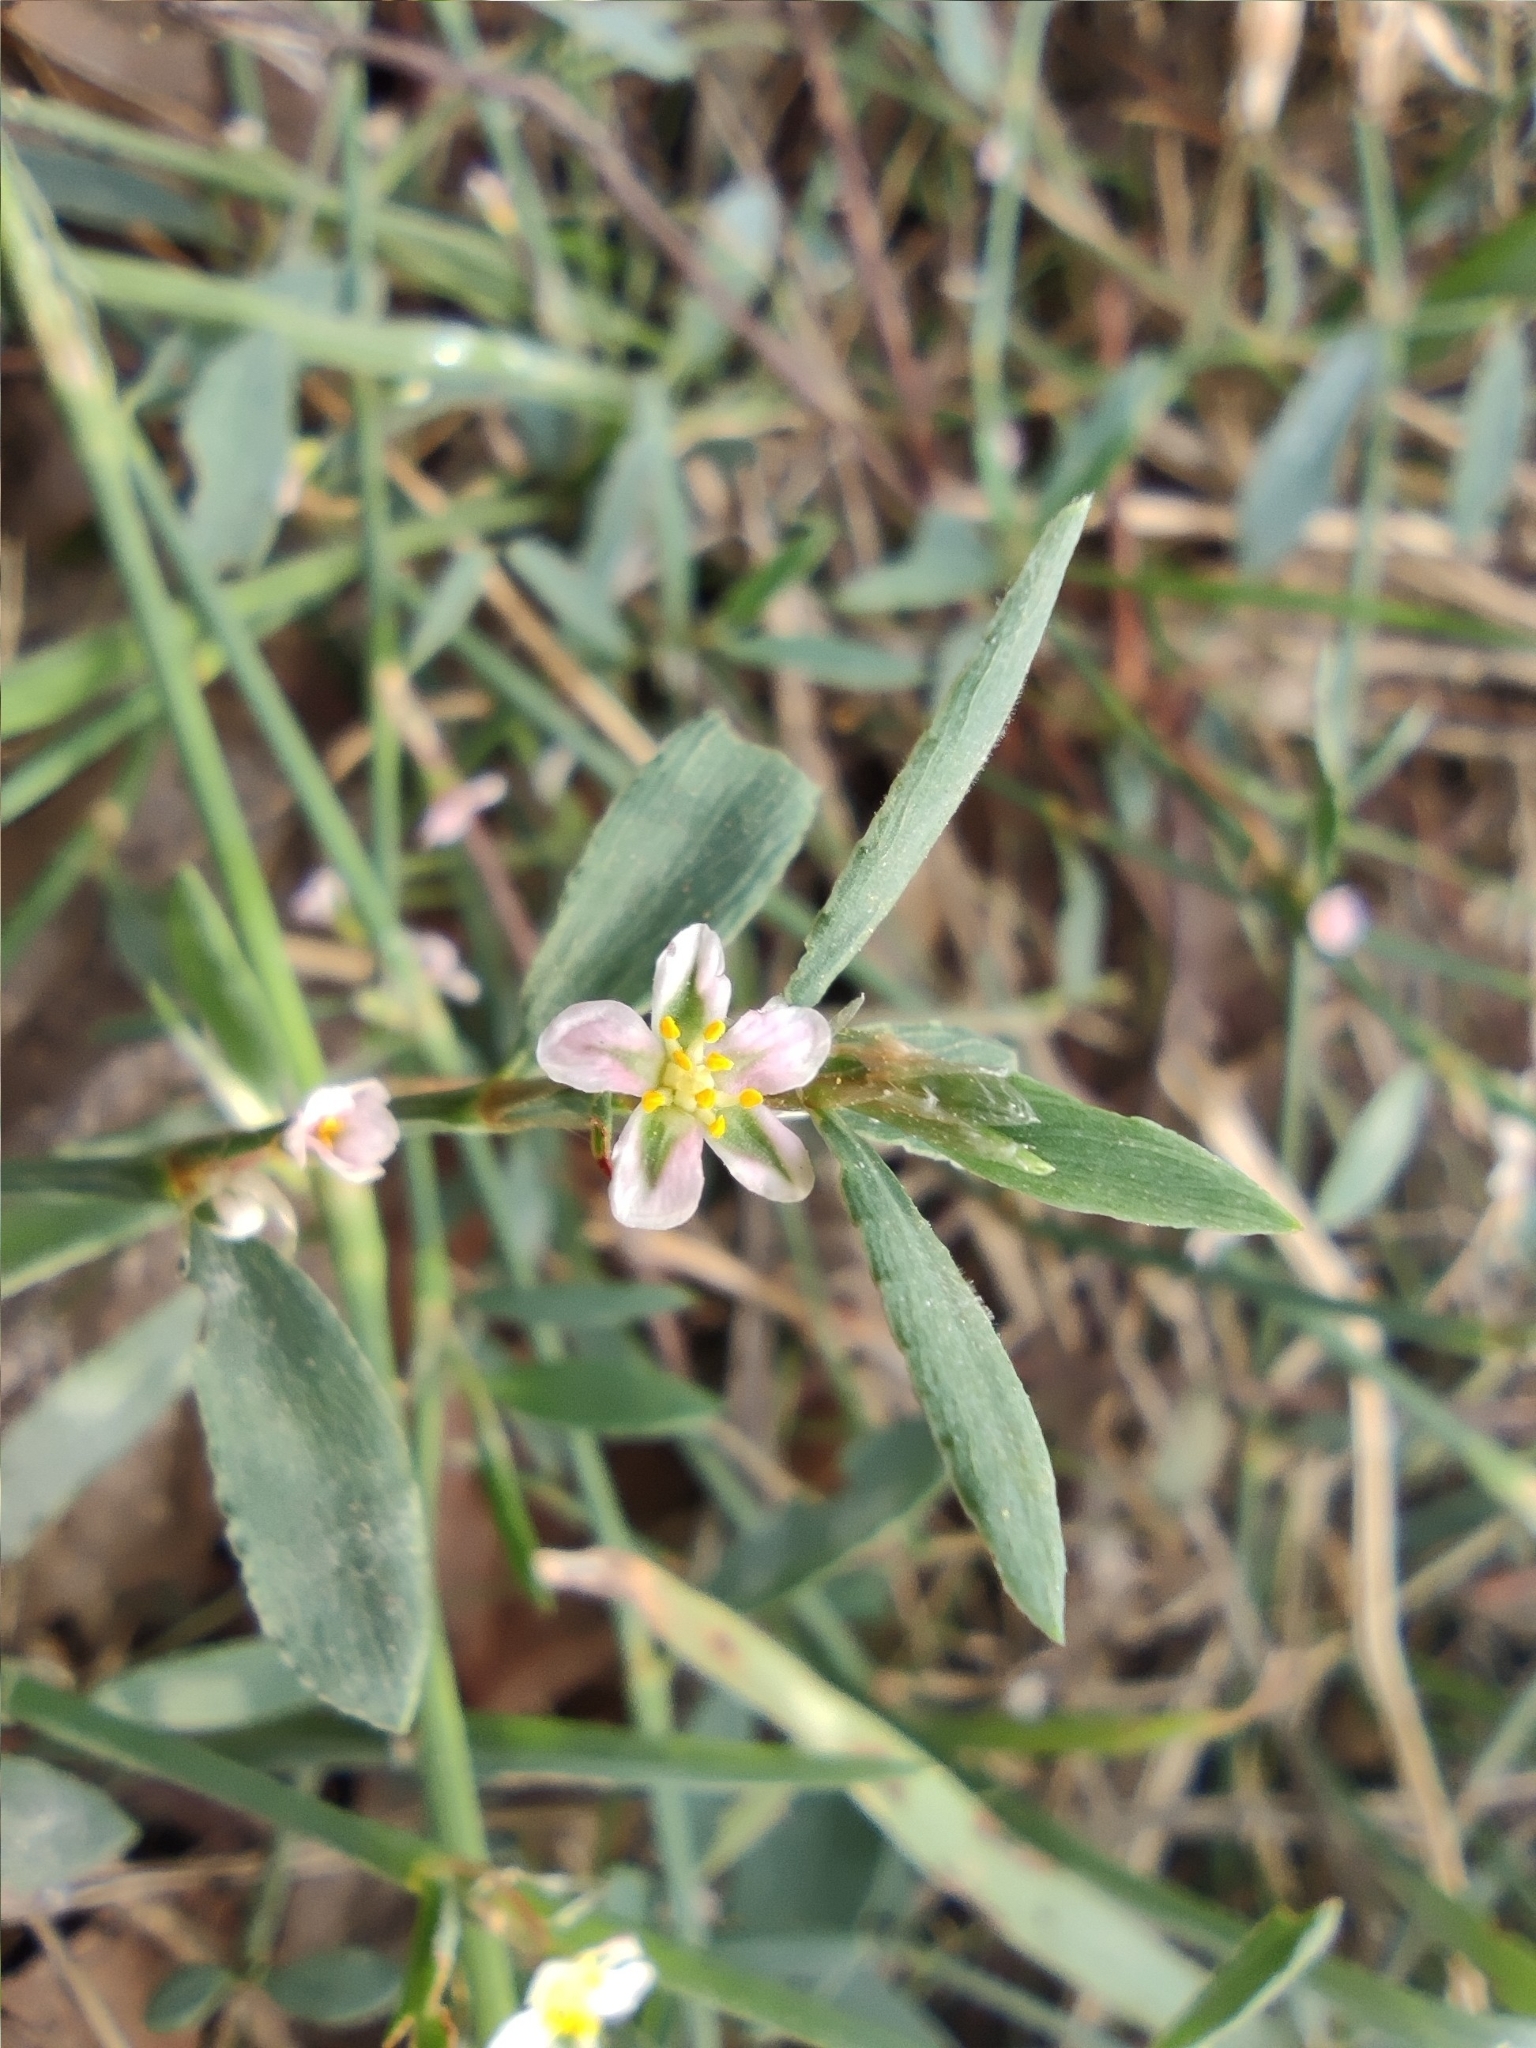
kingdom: Plantae
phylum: Tracheophyta
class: Magnoliopsida
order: Caryophyllales
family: Polygonaceae
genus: Polygonum
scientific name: Polygonum aviculare
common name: Prostrate knotweed
